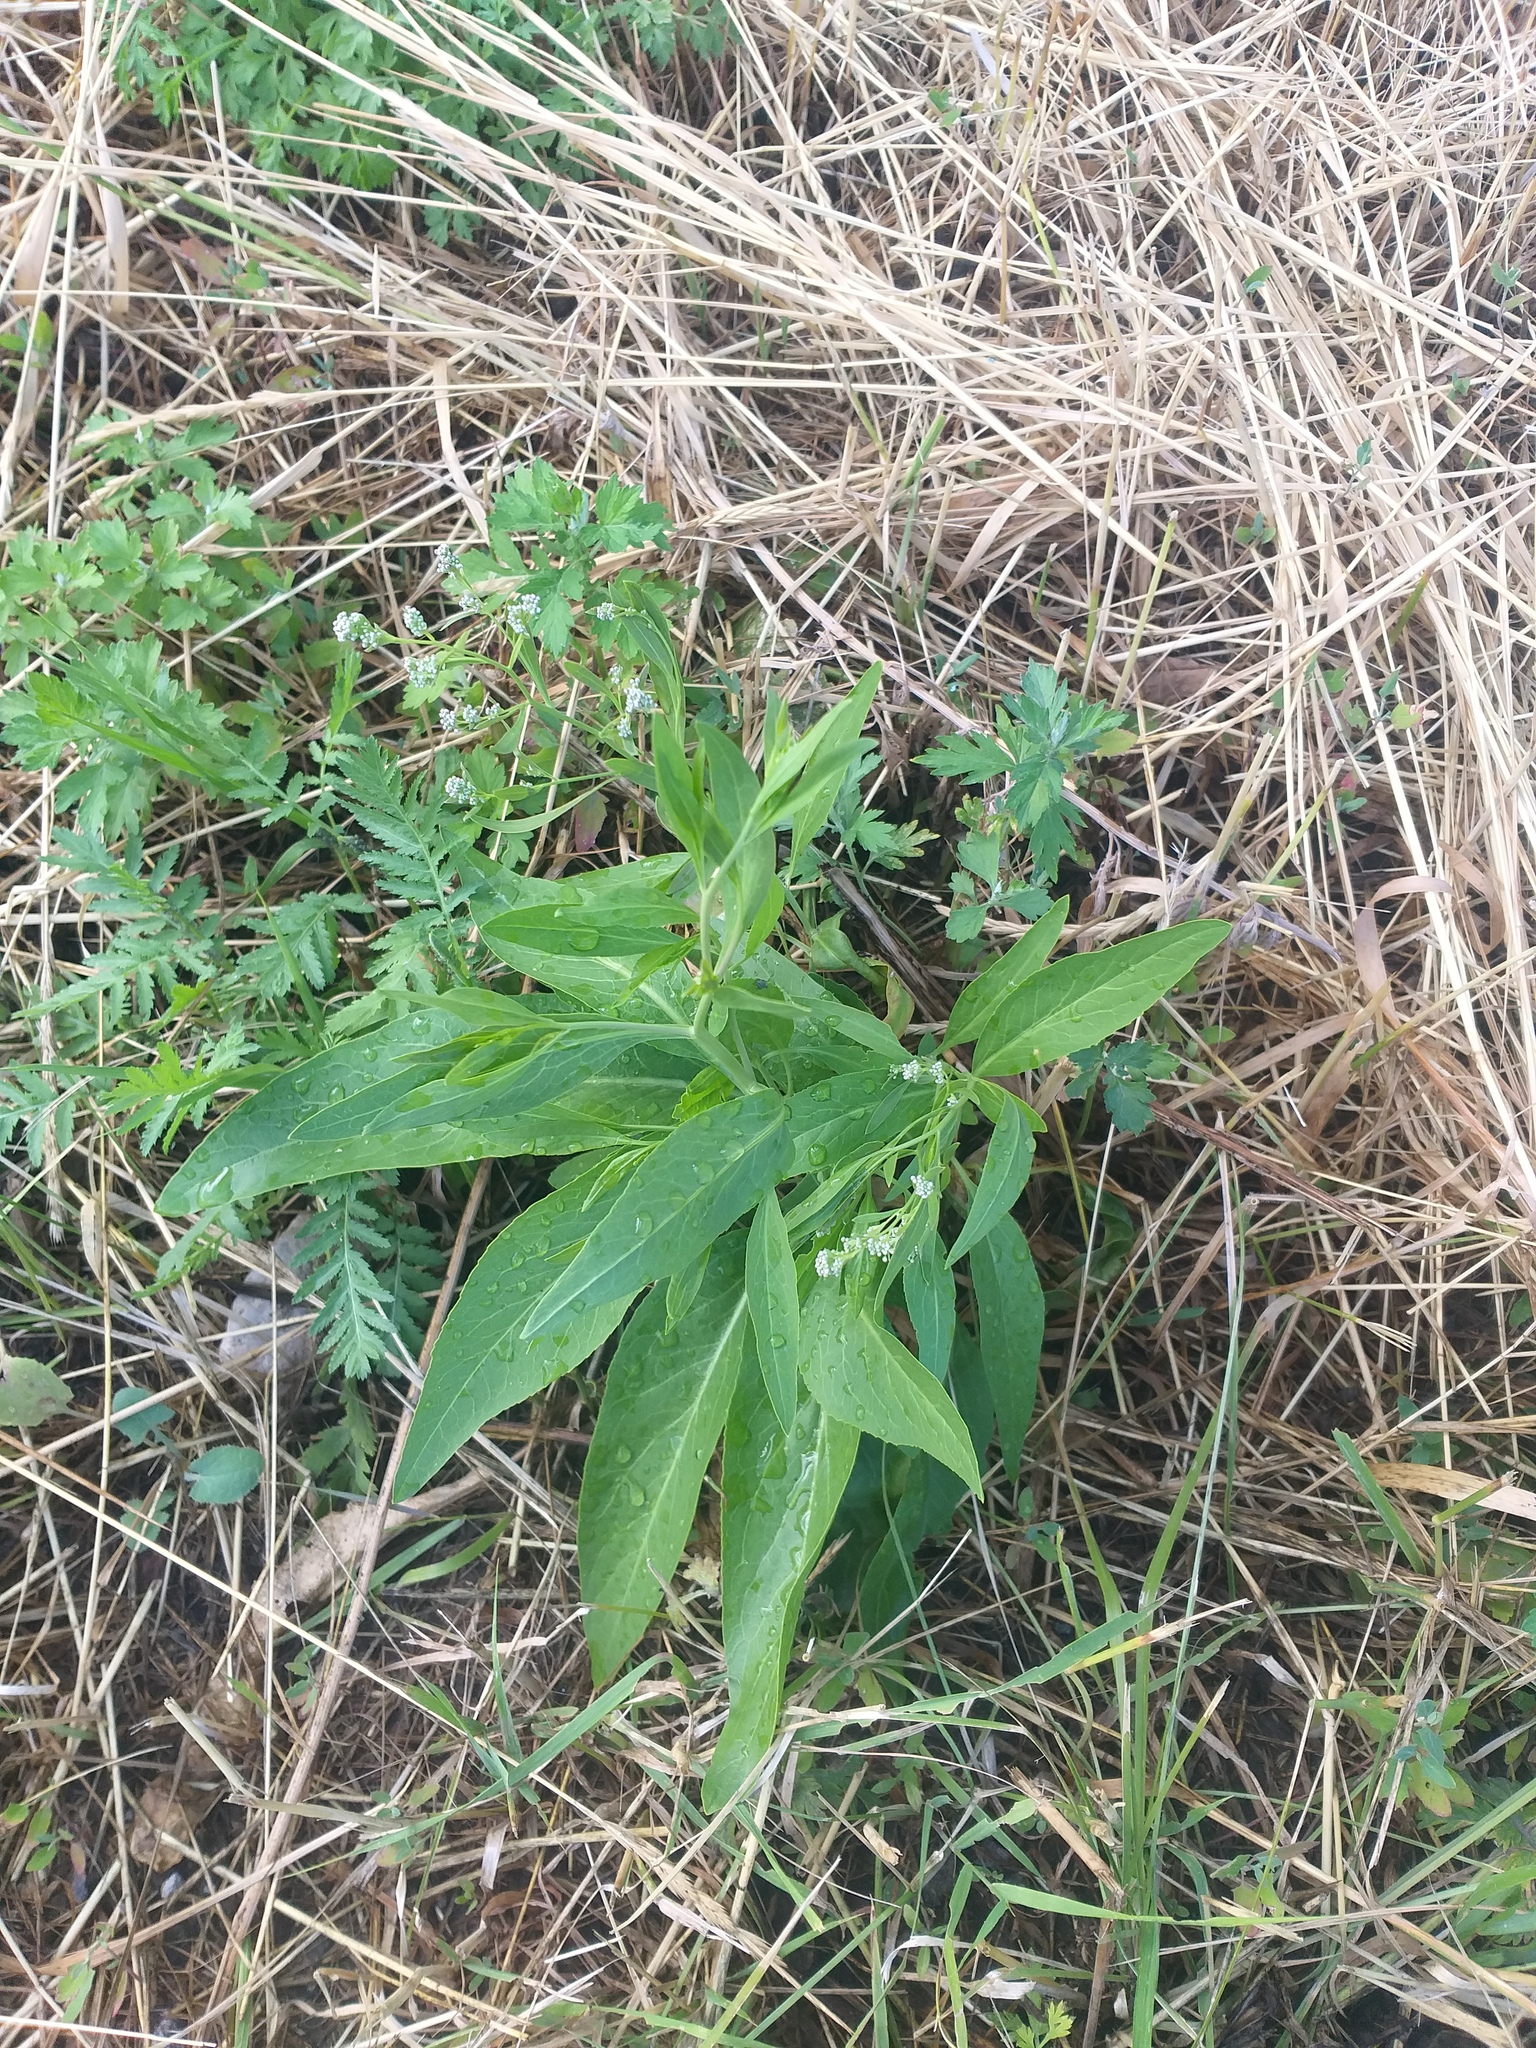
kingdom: Plantae
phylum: Tracheophyta
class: Magnoliopsida
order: Brassicales
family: Brassicaceae
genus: Lepidium
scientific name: Lepidium latifolium
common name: Dittander
